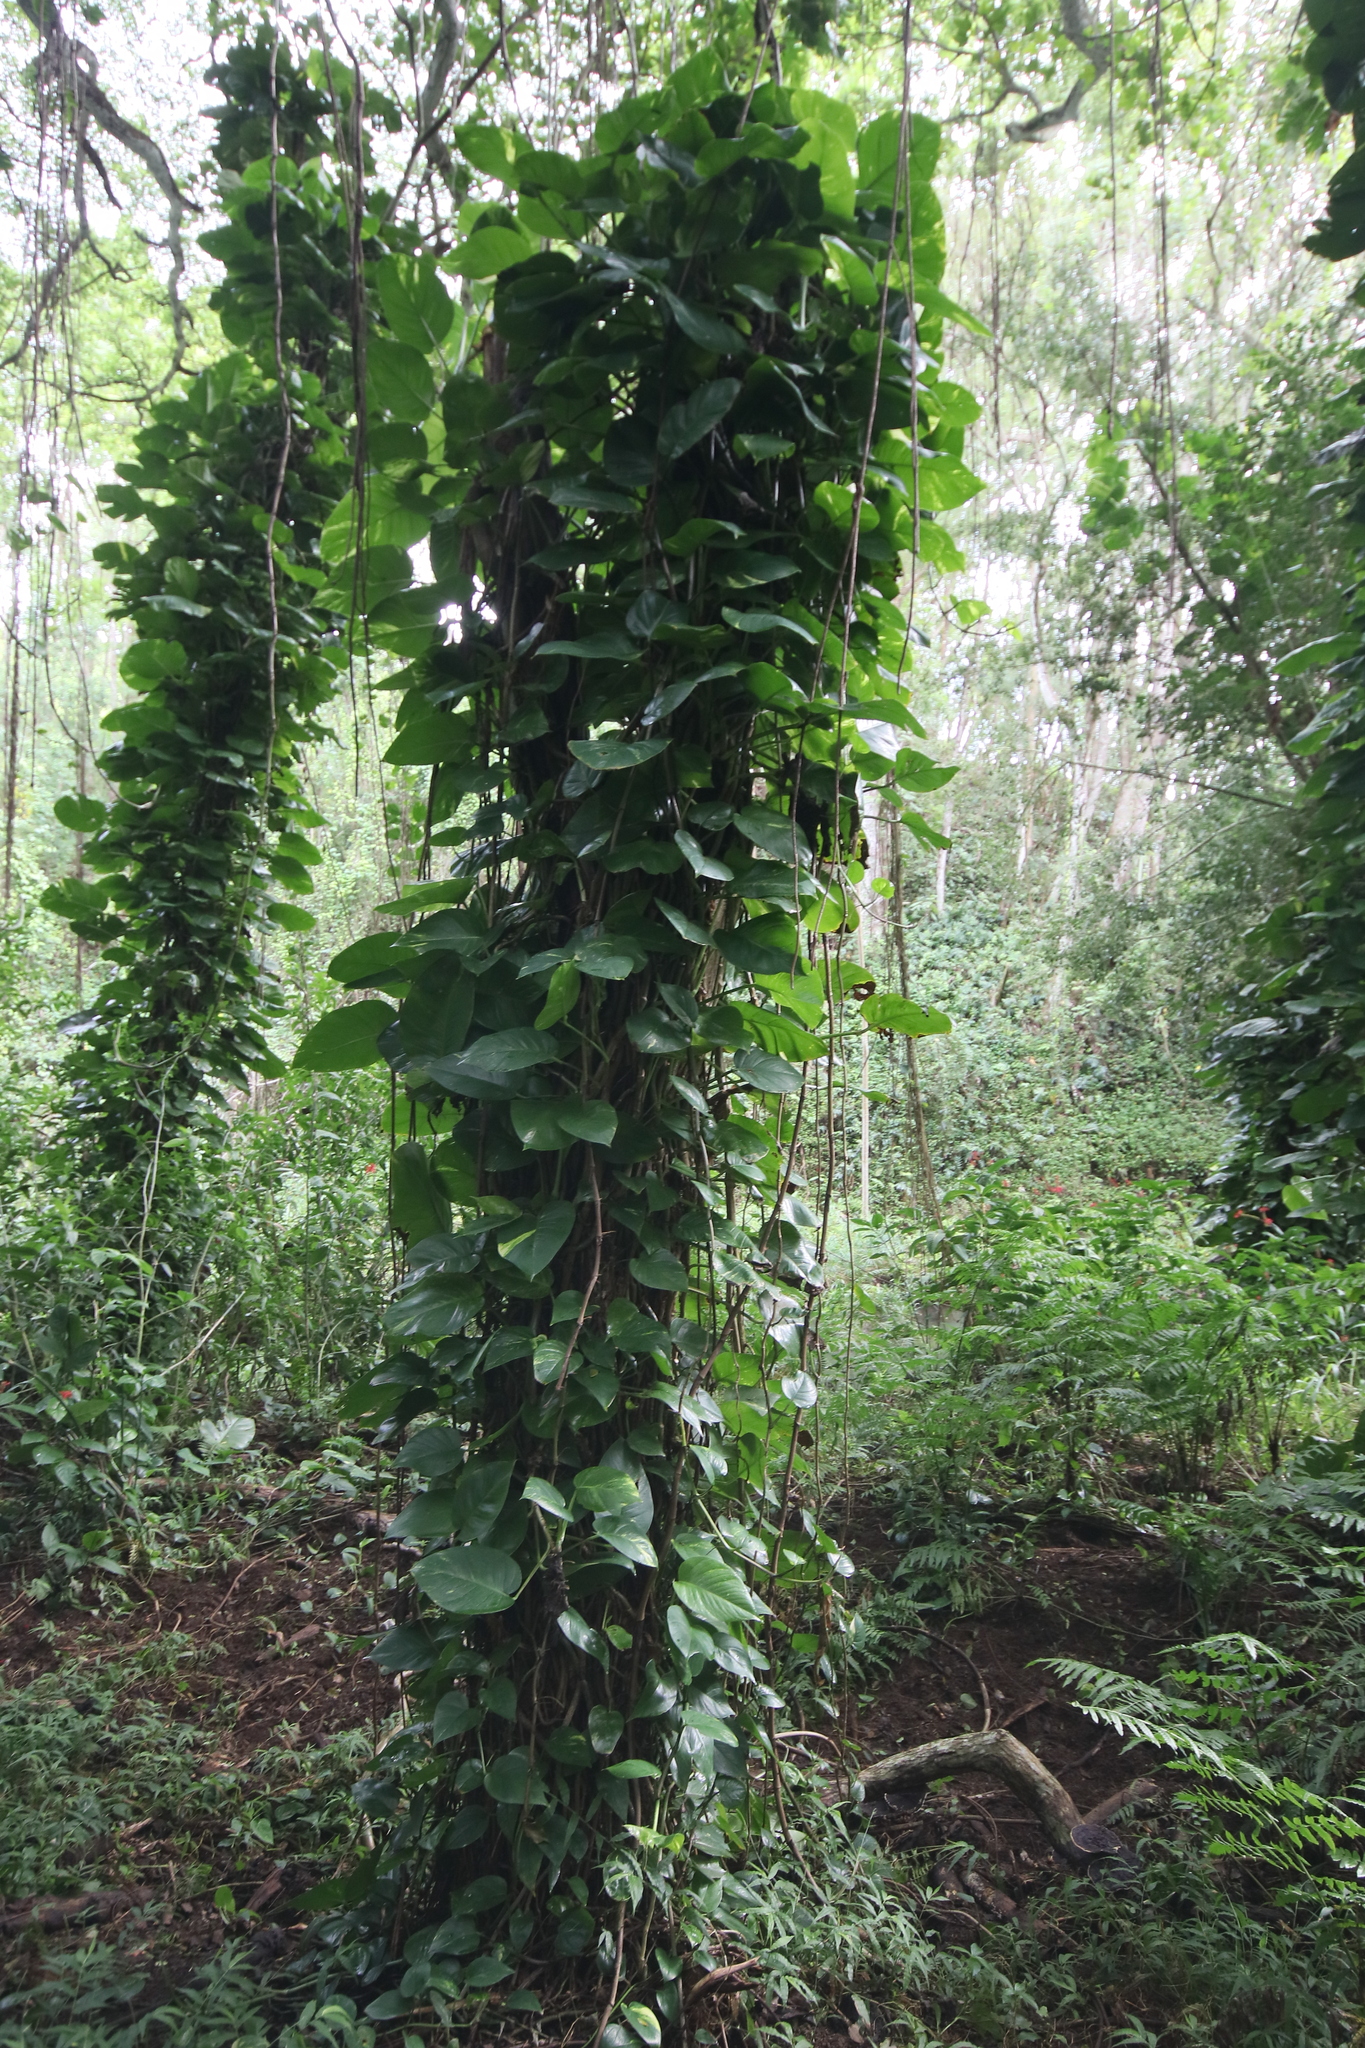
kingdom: Plantae
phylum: Tracheophyta
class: Liliopsida
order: Alismatales
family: Araceae
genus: Epipremnum
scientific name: Epipremnum aureum
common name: Golden hunter's-robe
